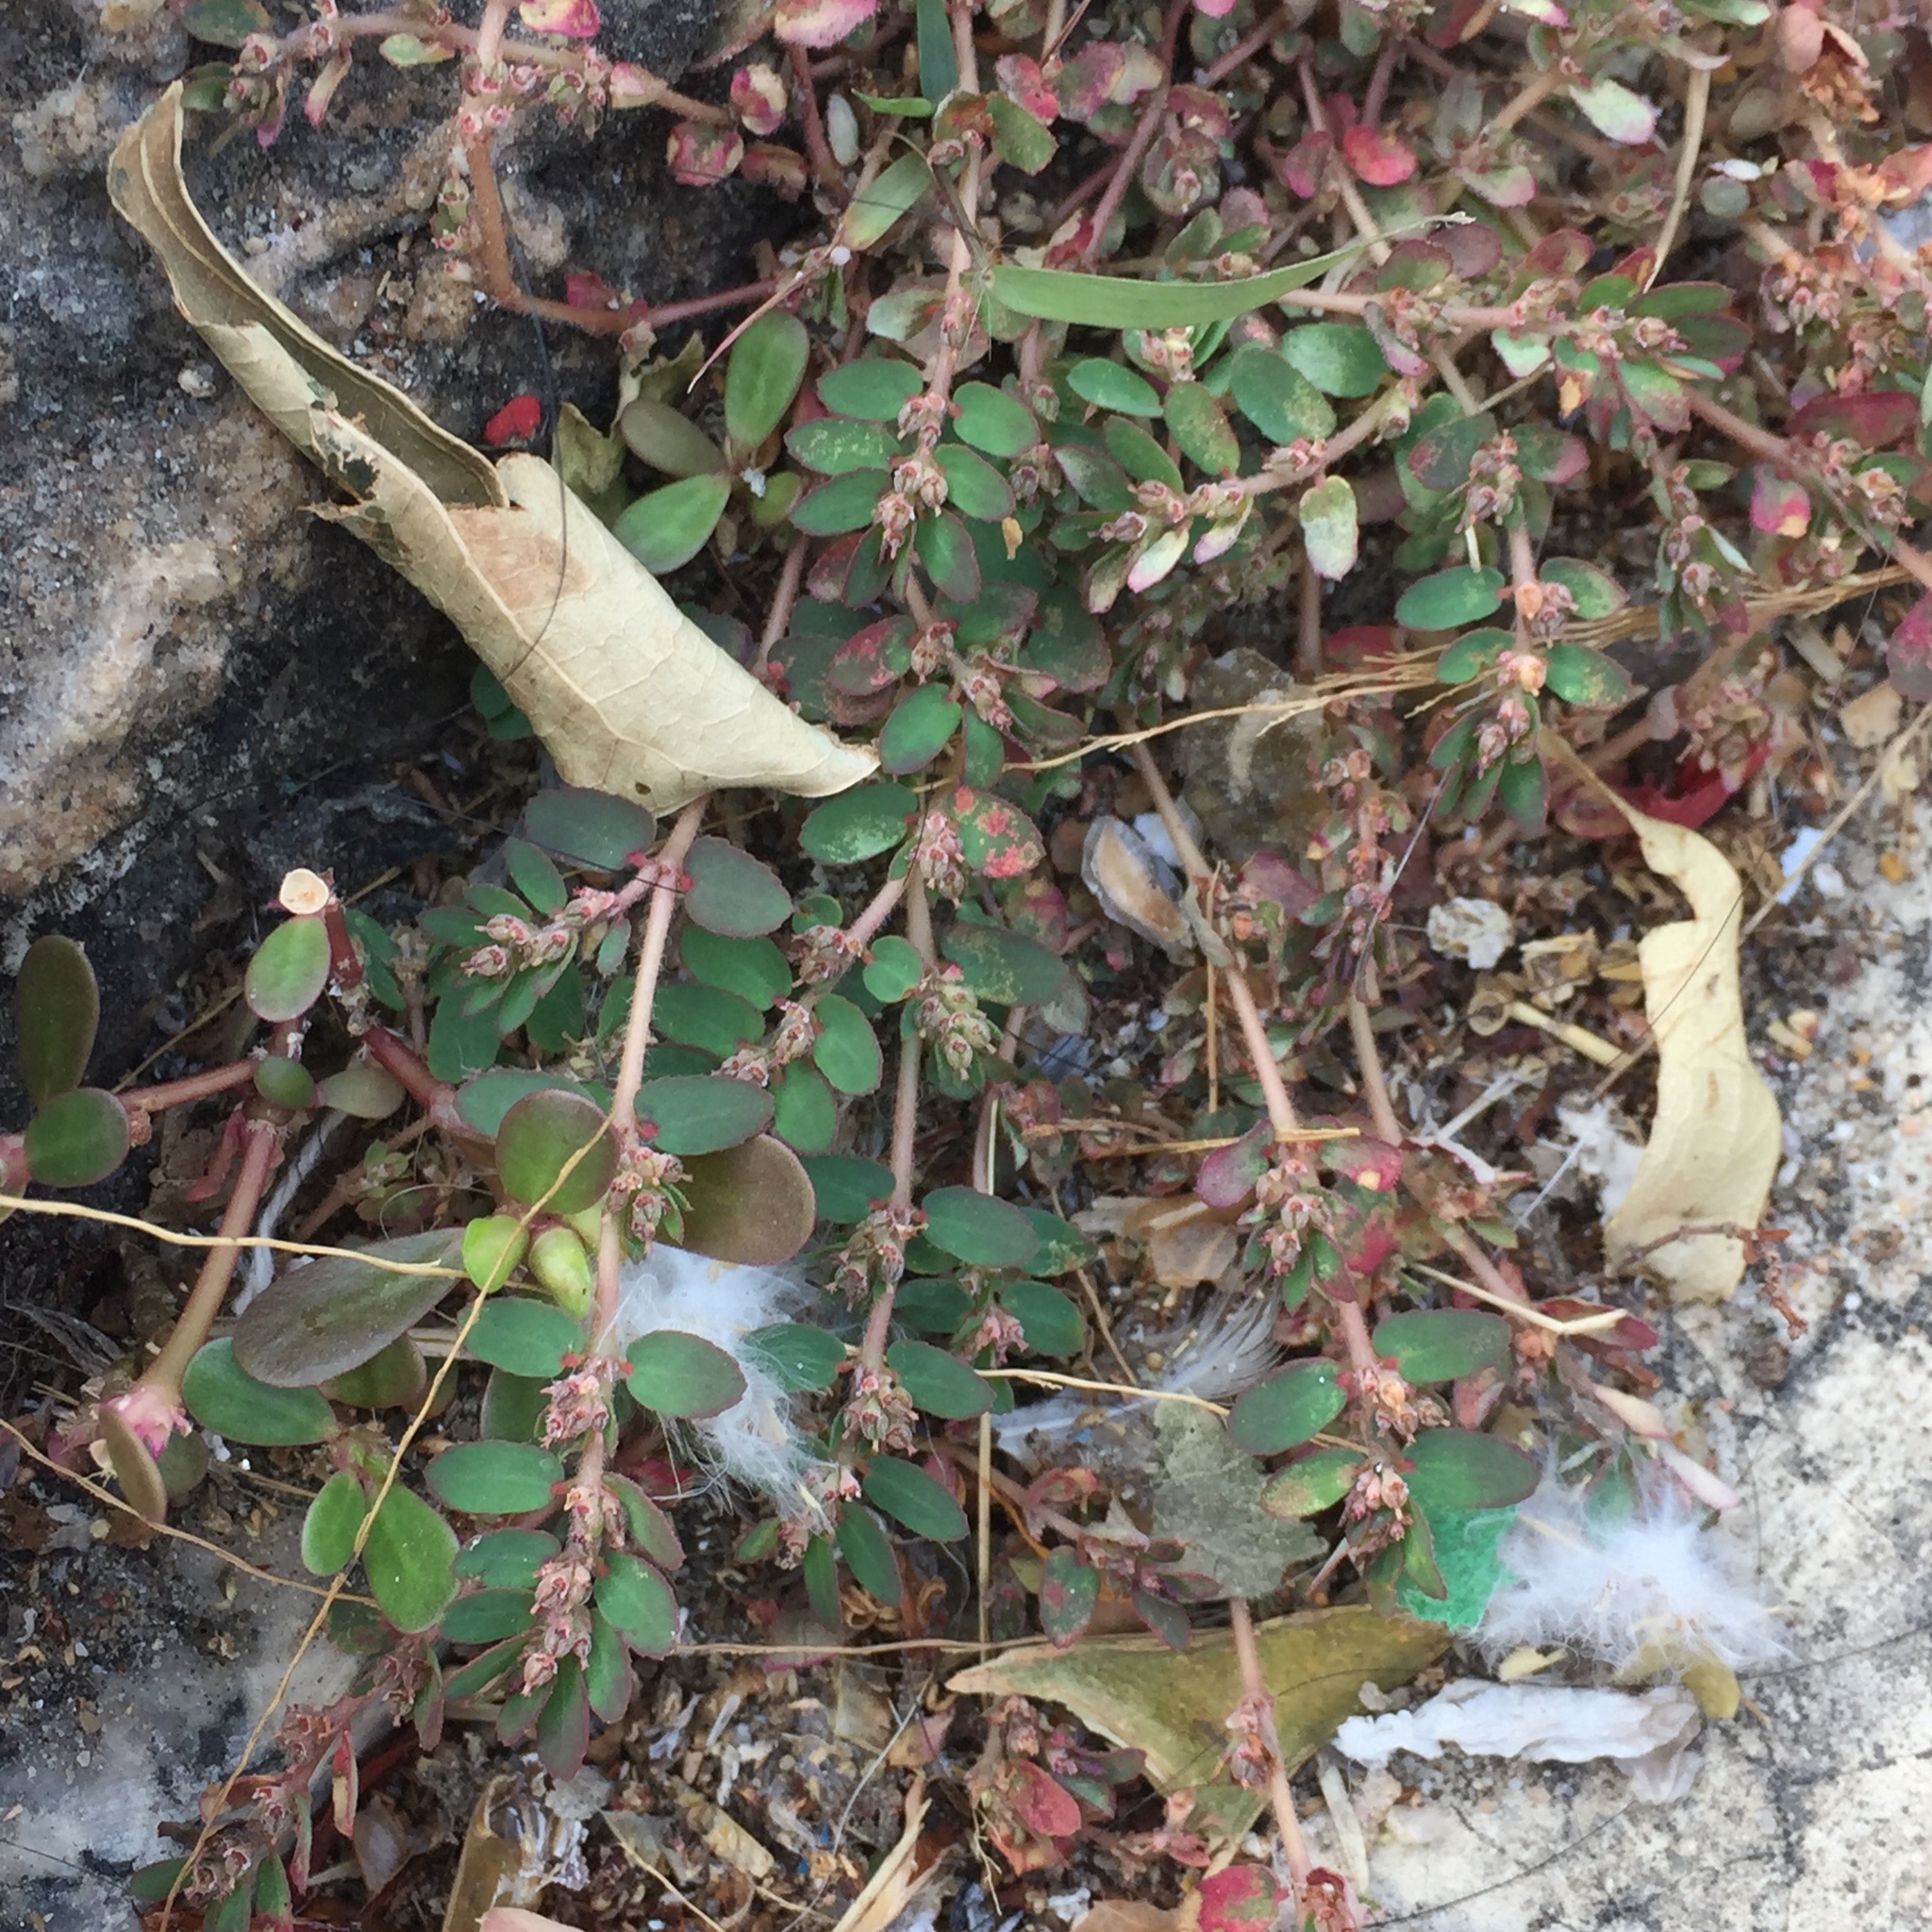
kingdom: Plantae
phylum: Tracheophyta
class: Magnoliopsida
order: Malpighiales
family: Euphorbiaceae
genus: Euphorbia
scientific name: Euphorbia thymifolia
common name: Gulf sandmat
